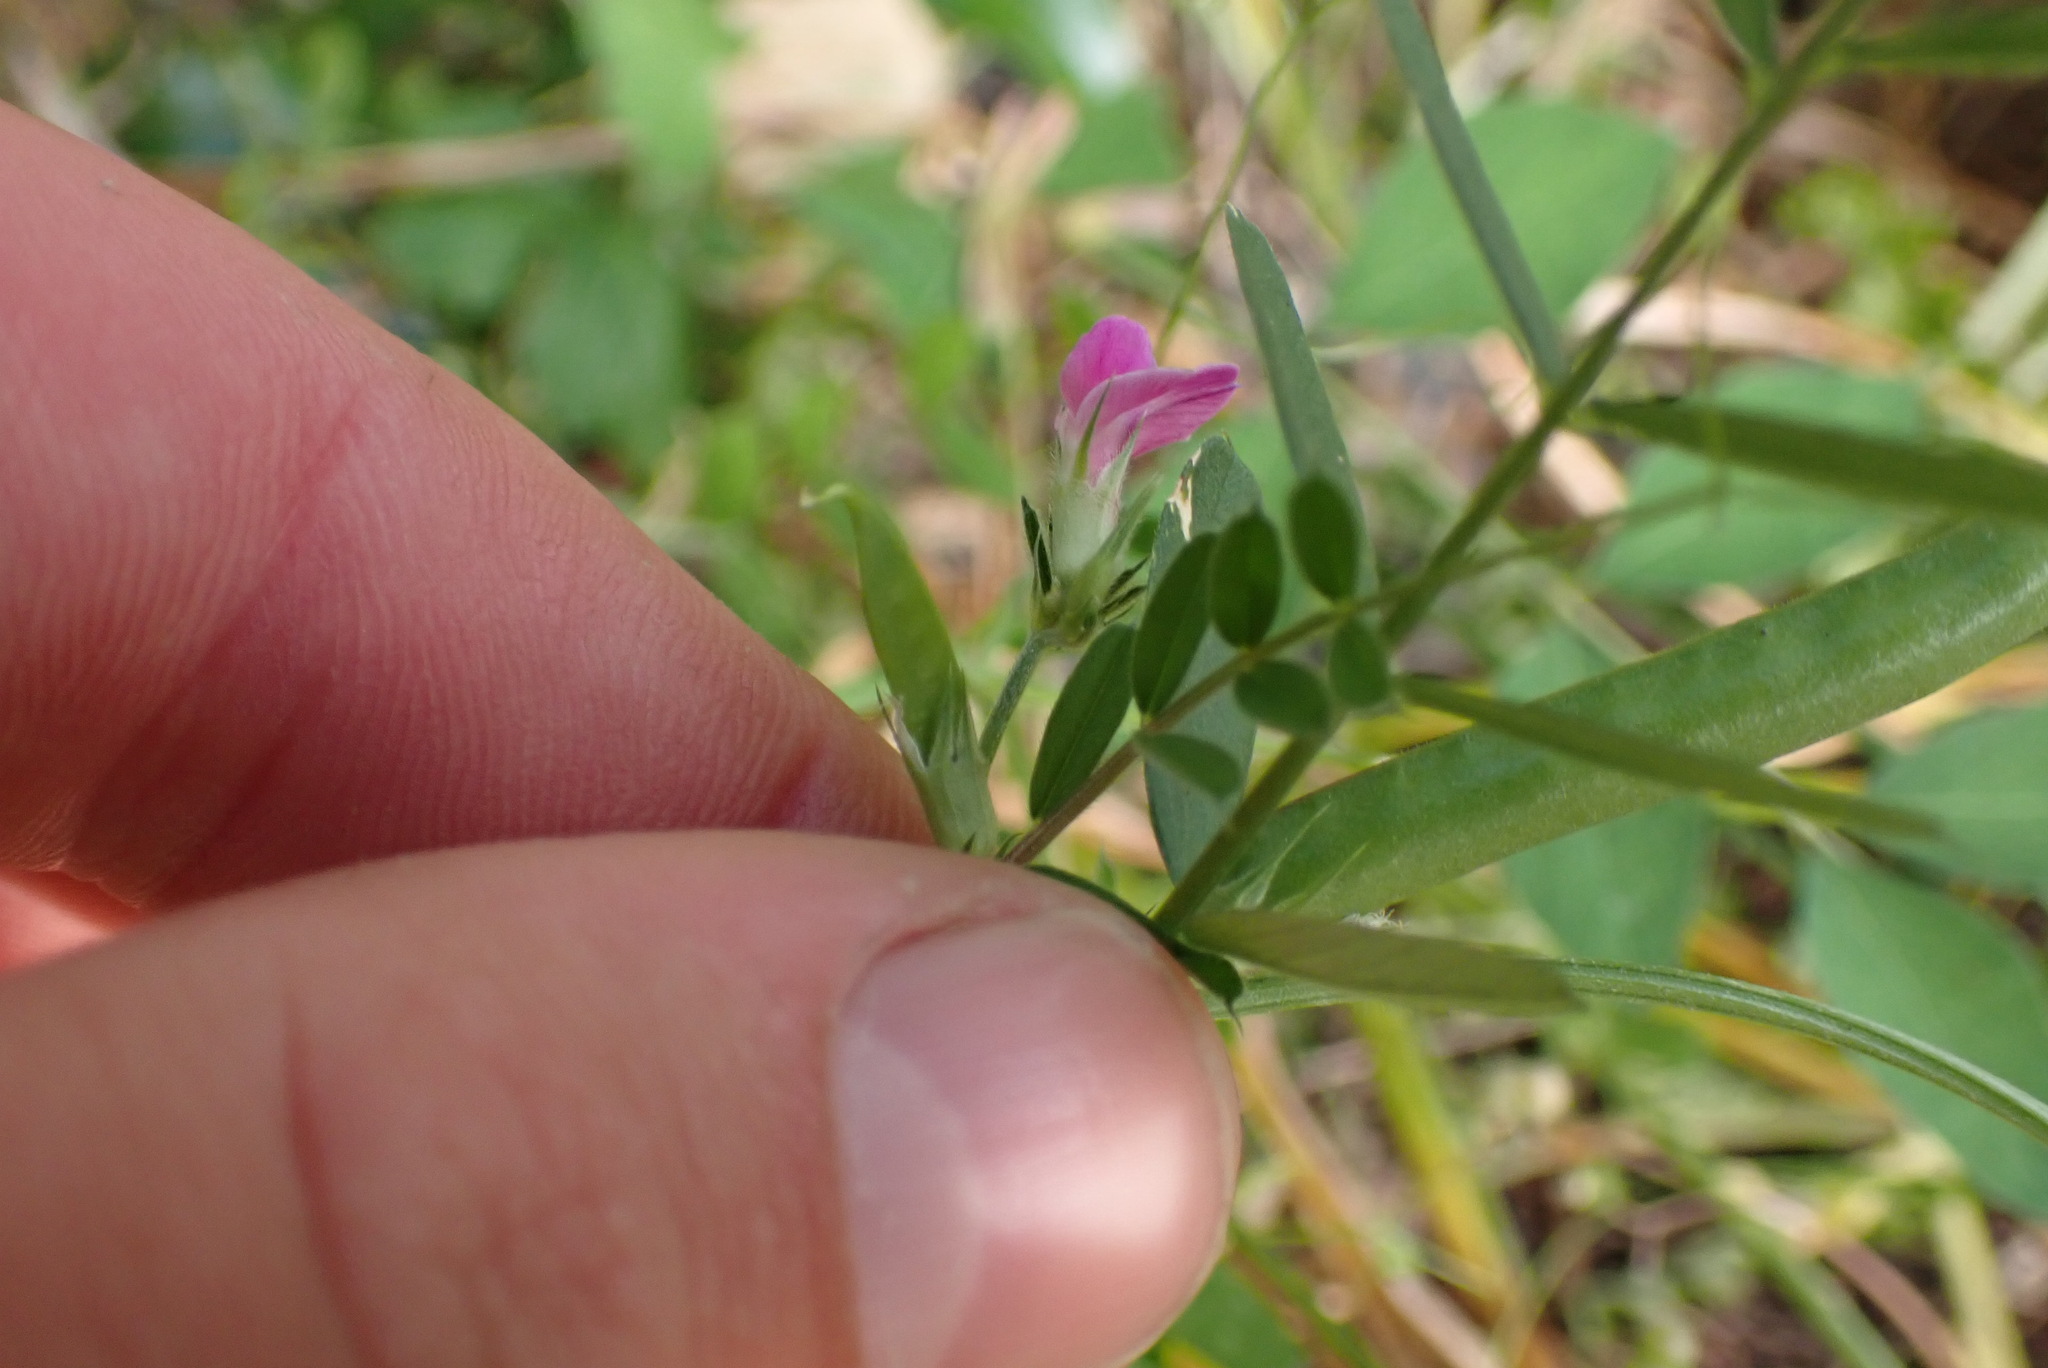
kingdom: Plantae
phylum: Tracheophyta
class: Magnoliopsida
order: Fabales
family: Fabaceae
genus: Vicia
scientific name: Vicia sativa
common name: Garden vetch
